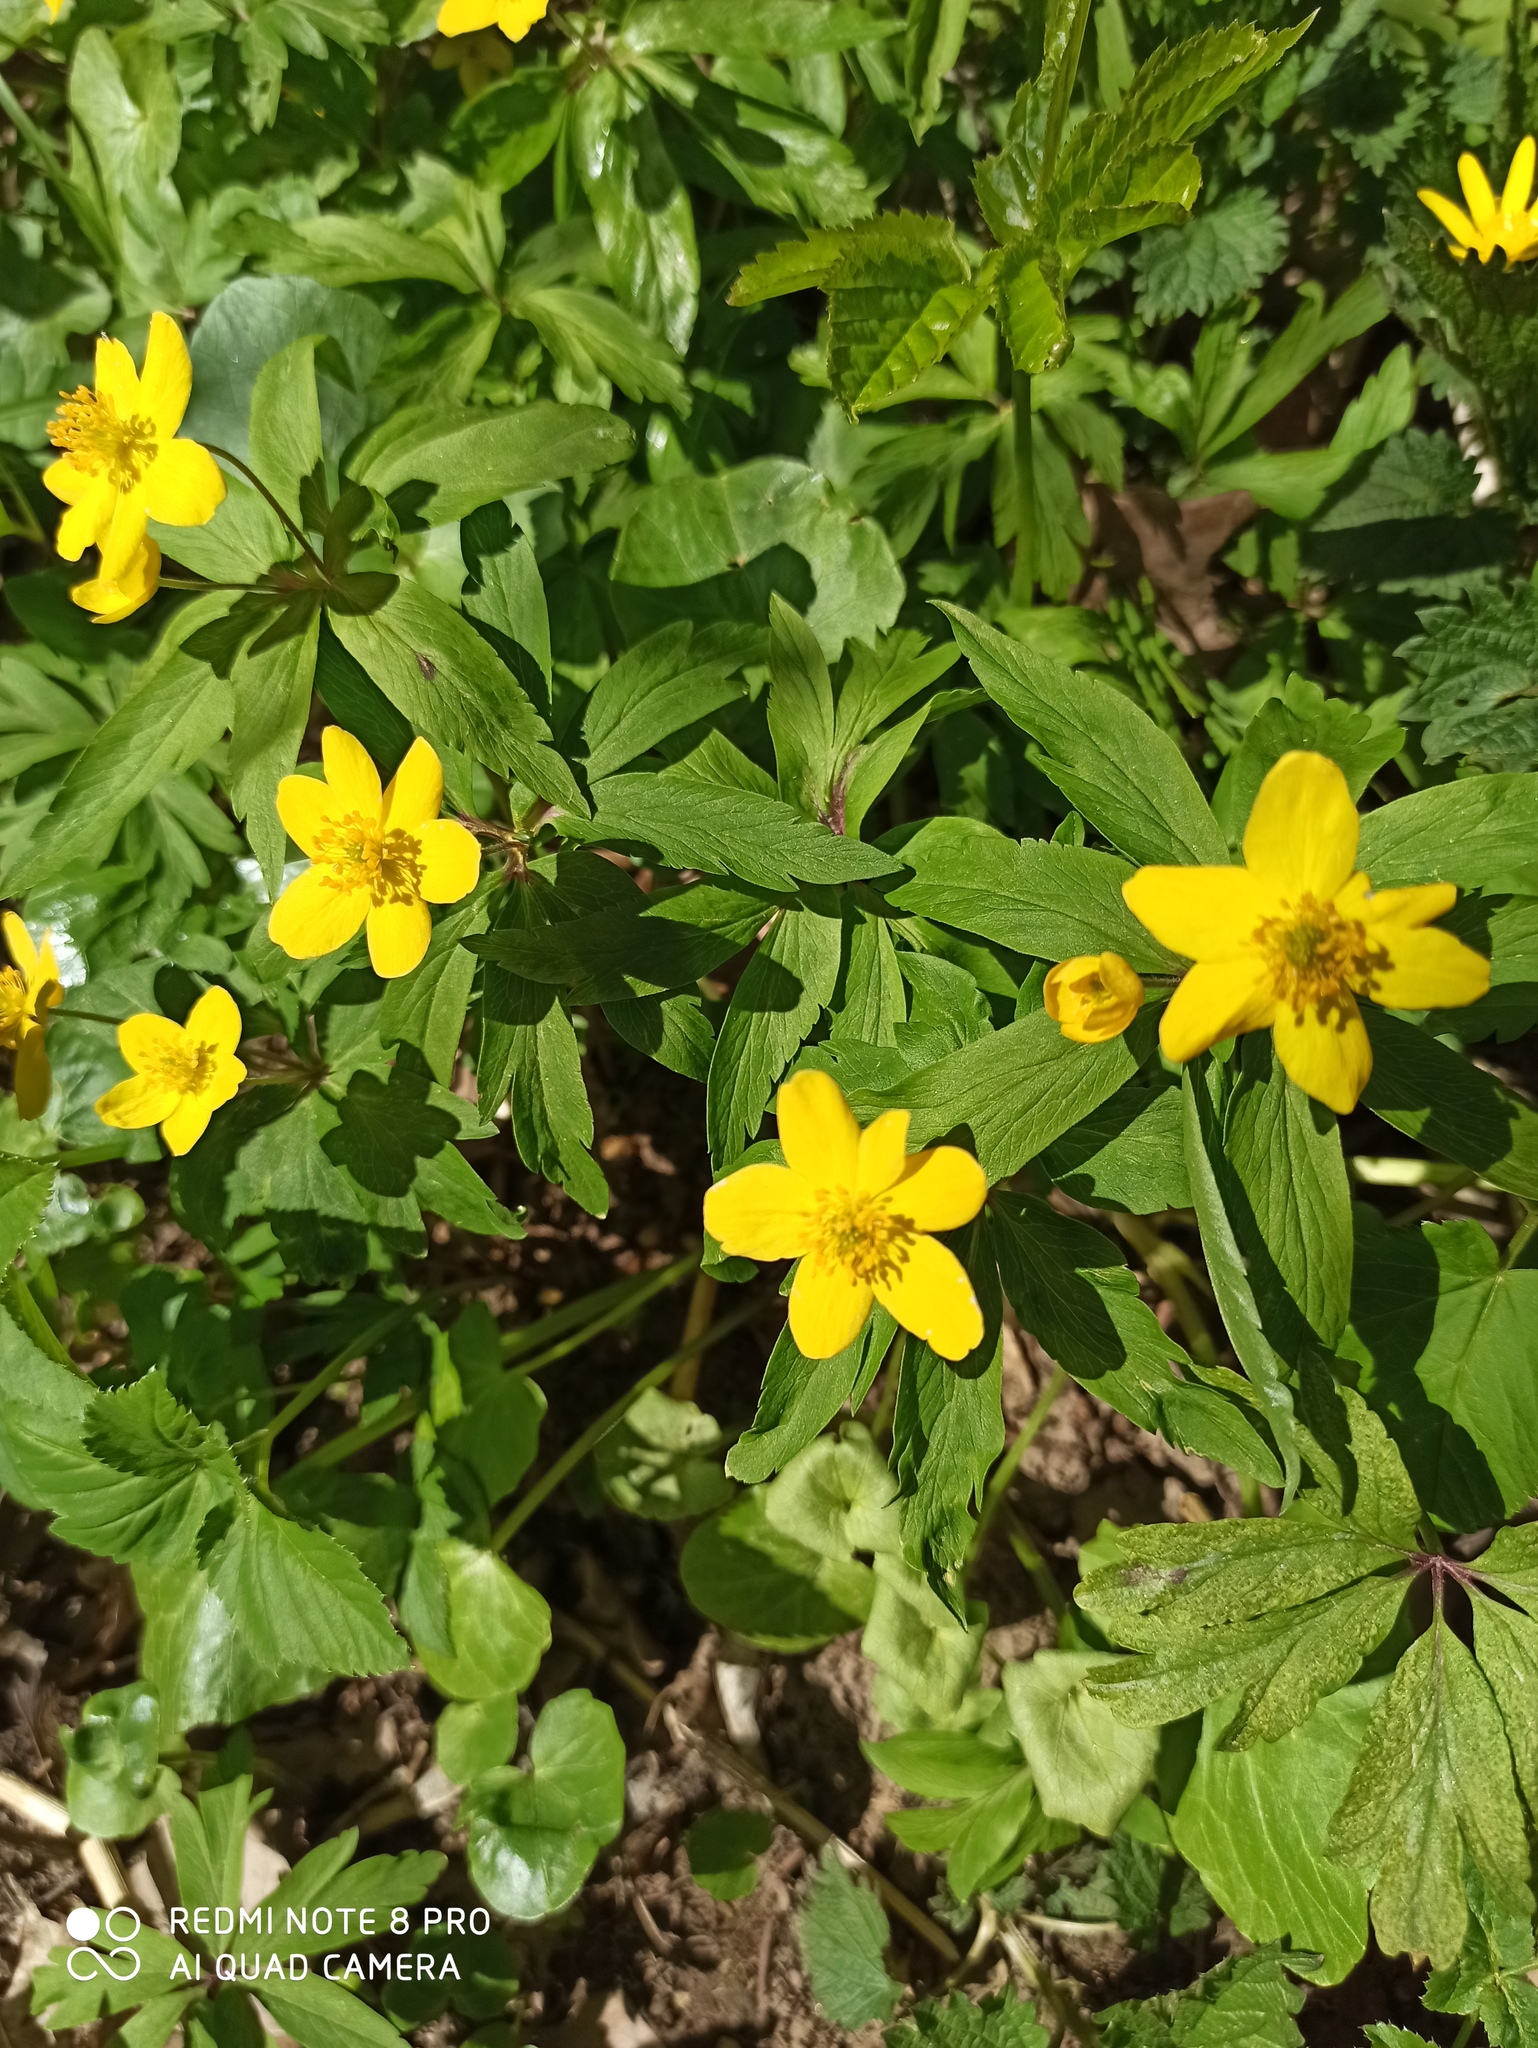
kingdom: Plantae
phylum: Tracheophyta
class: Magnoliopsida
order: Ranunculales
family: Ranunculaceae
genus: Anemone
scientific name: Anemone ranunculoides
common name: Yellow anemone
